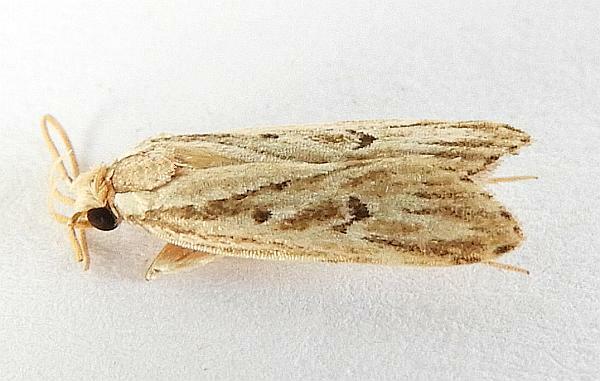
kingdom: Animalia
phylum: Arthropoda
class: Insecta
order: Lepidoptera
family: Depressariidae
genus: Eupragia
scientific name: Eupragia hospita
